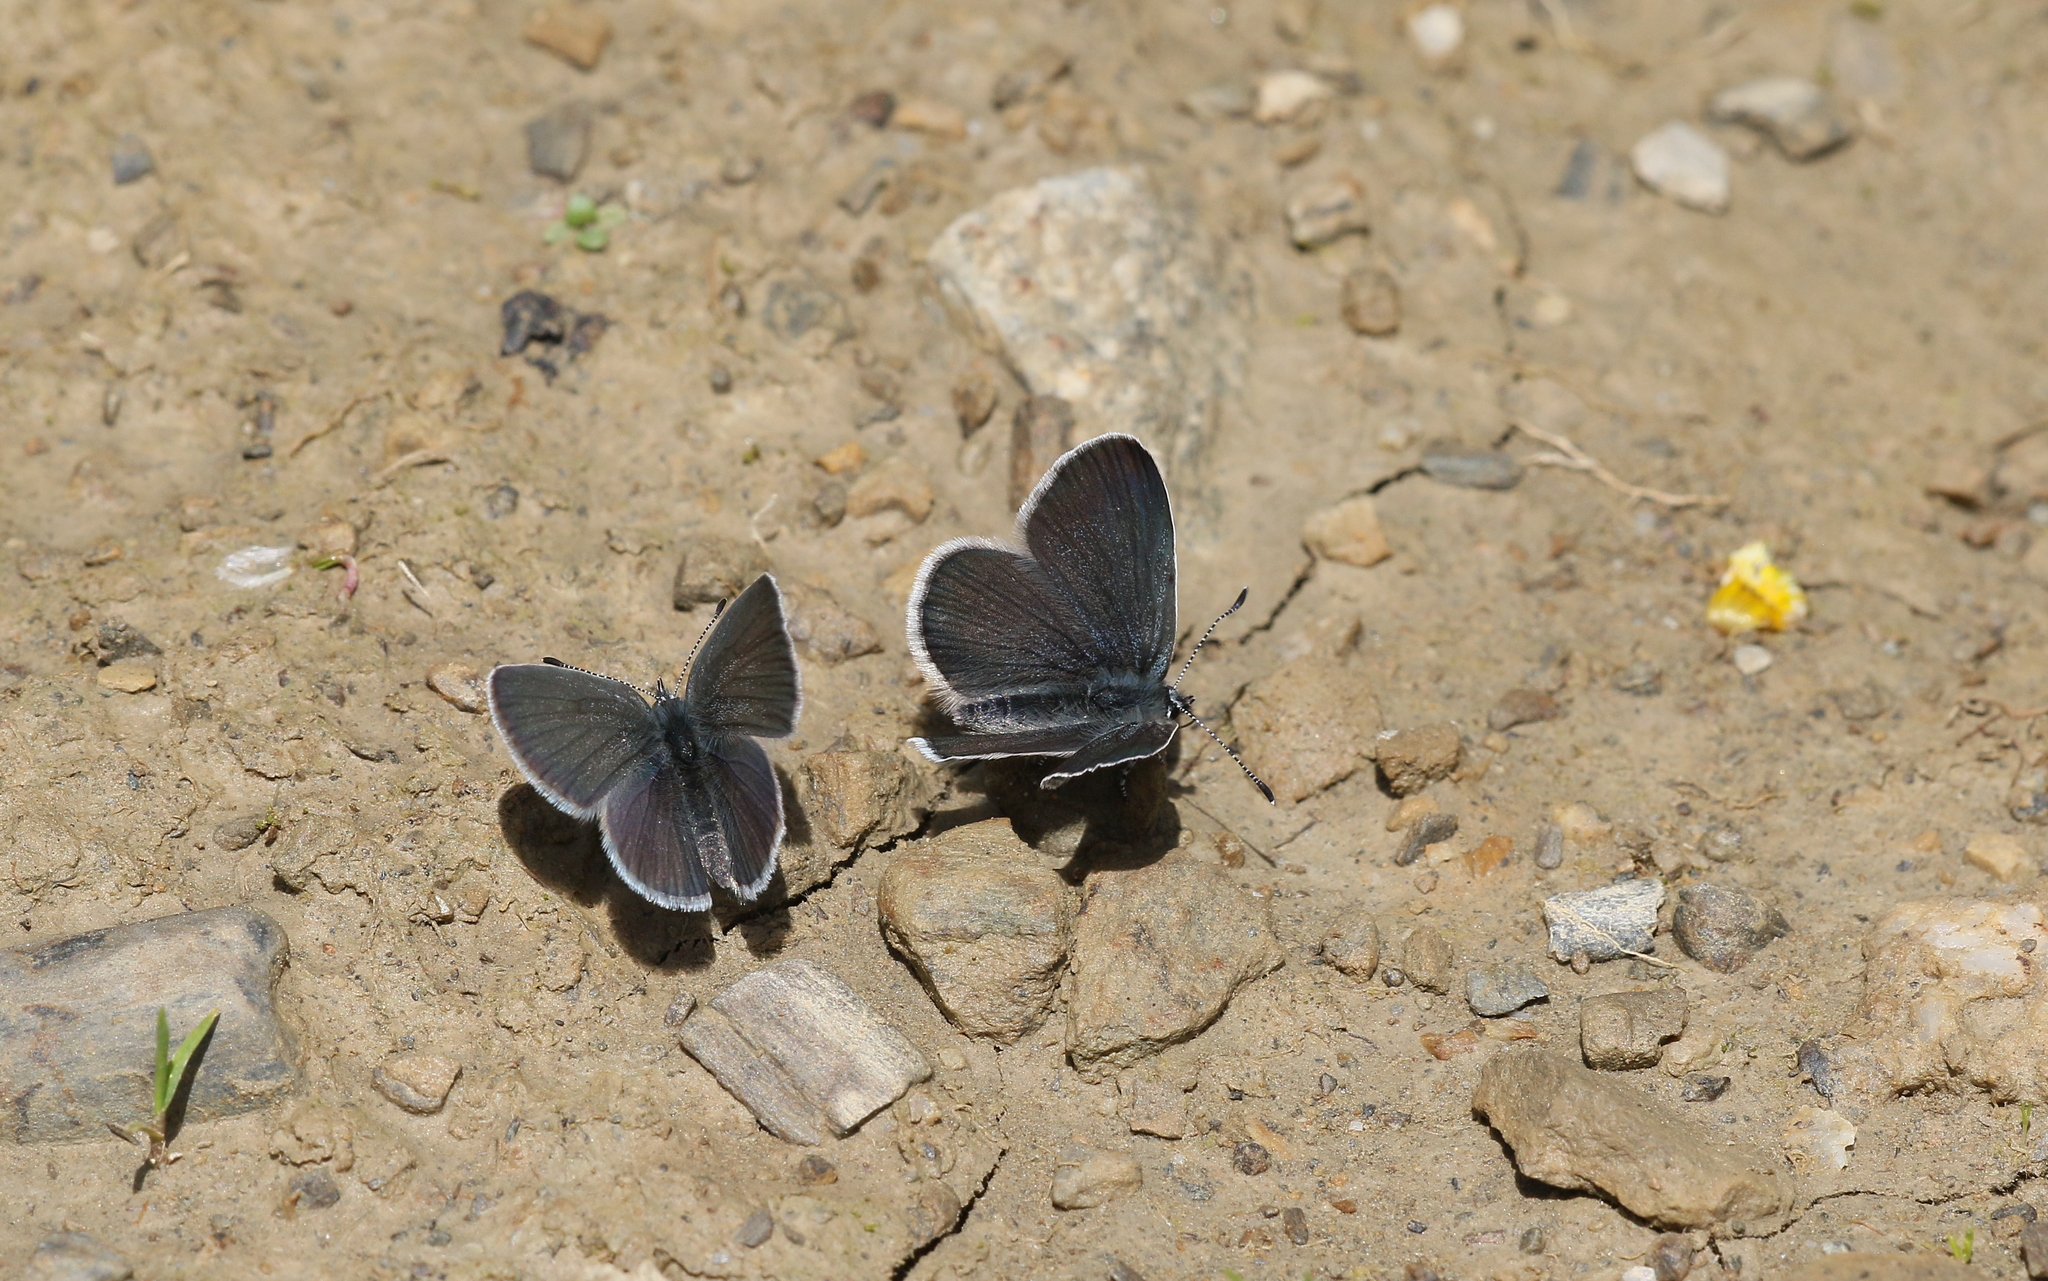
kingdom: Animalia
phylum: Arthropoda
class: Insecta
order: Lepidoptera
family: Lycaenidae
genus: Cupido
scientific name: Cupido minimus
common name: Small blue
